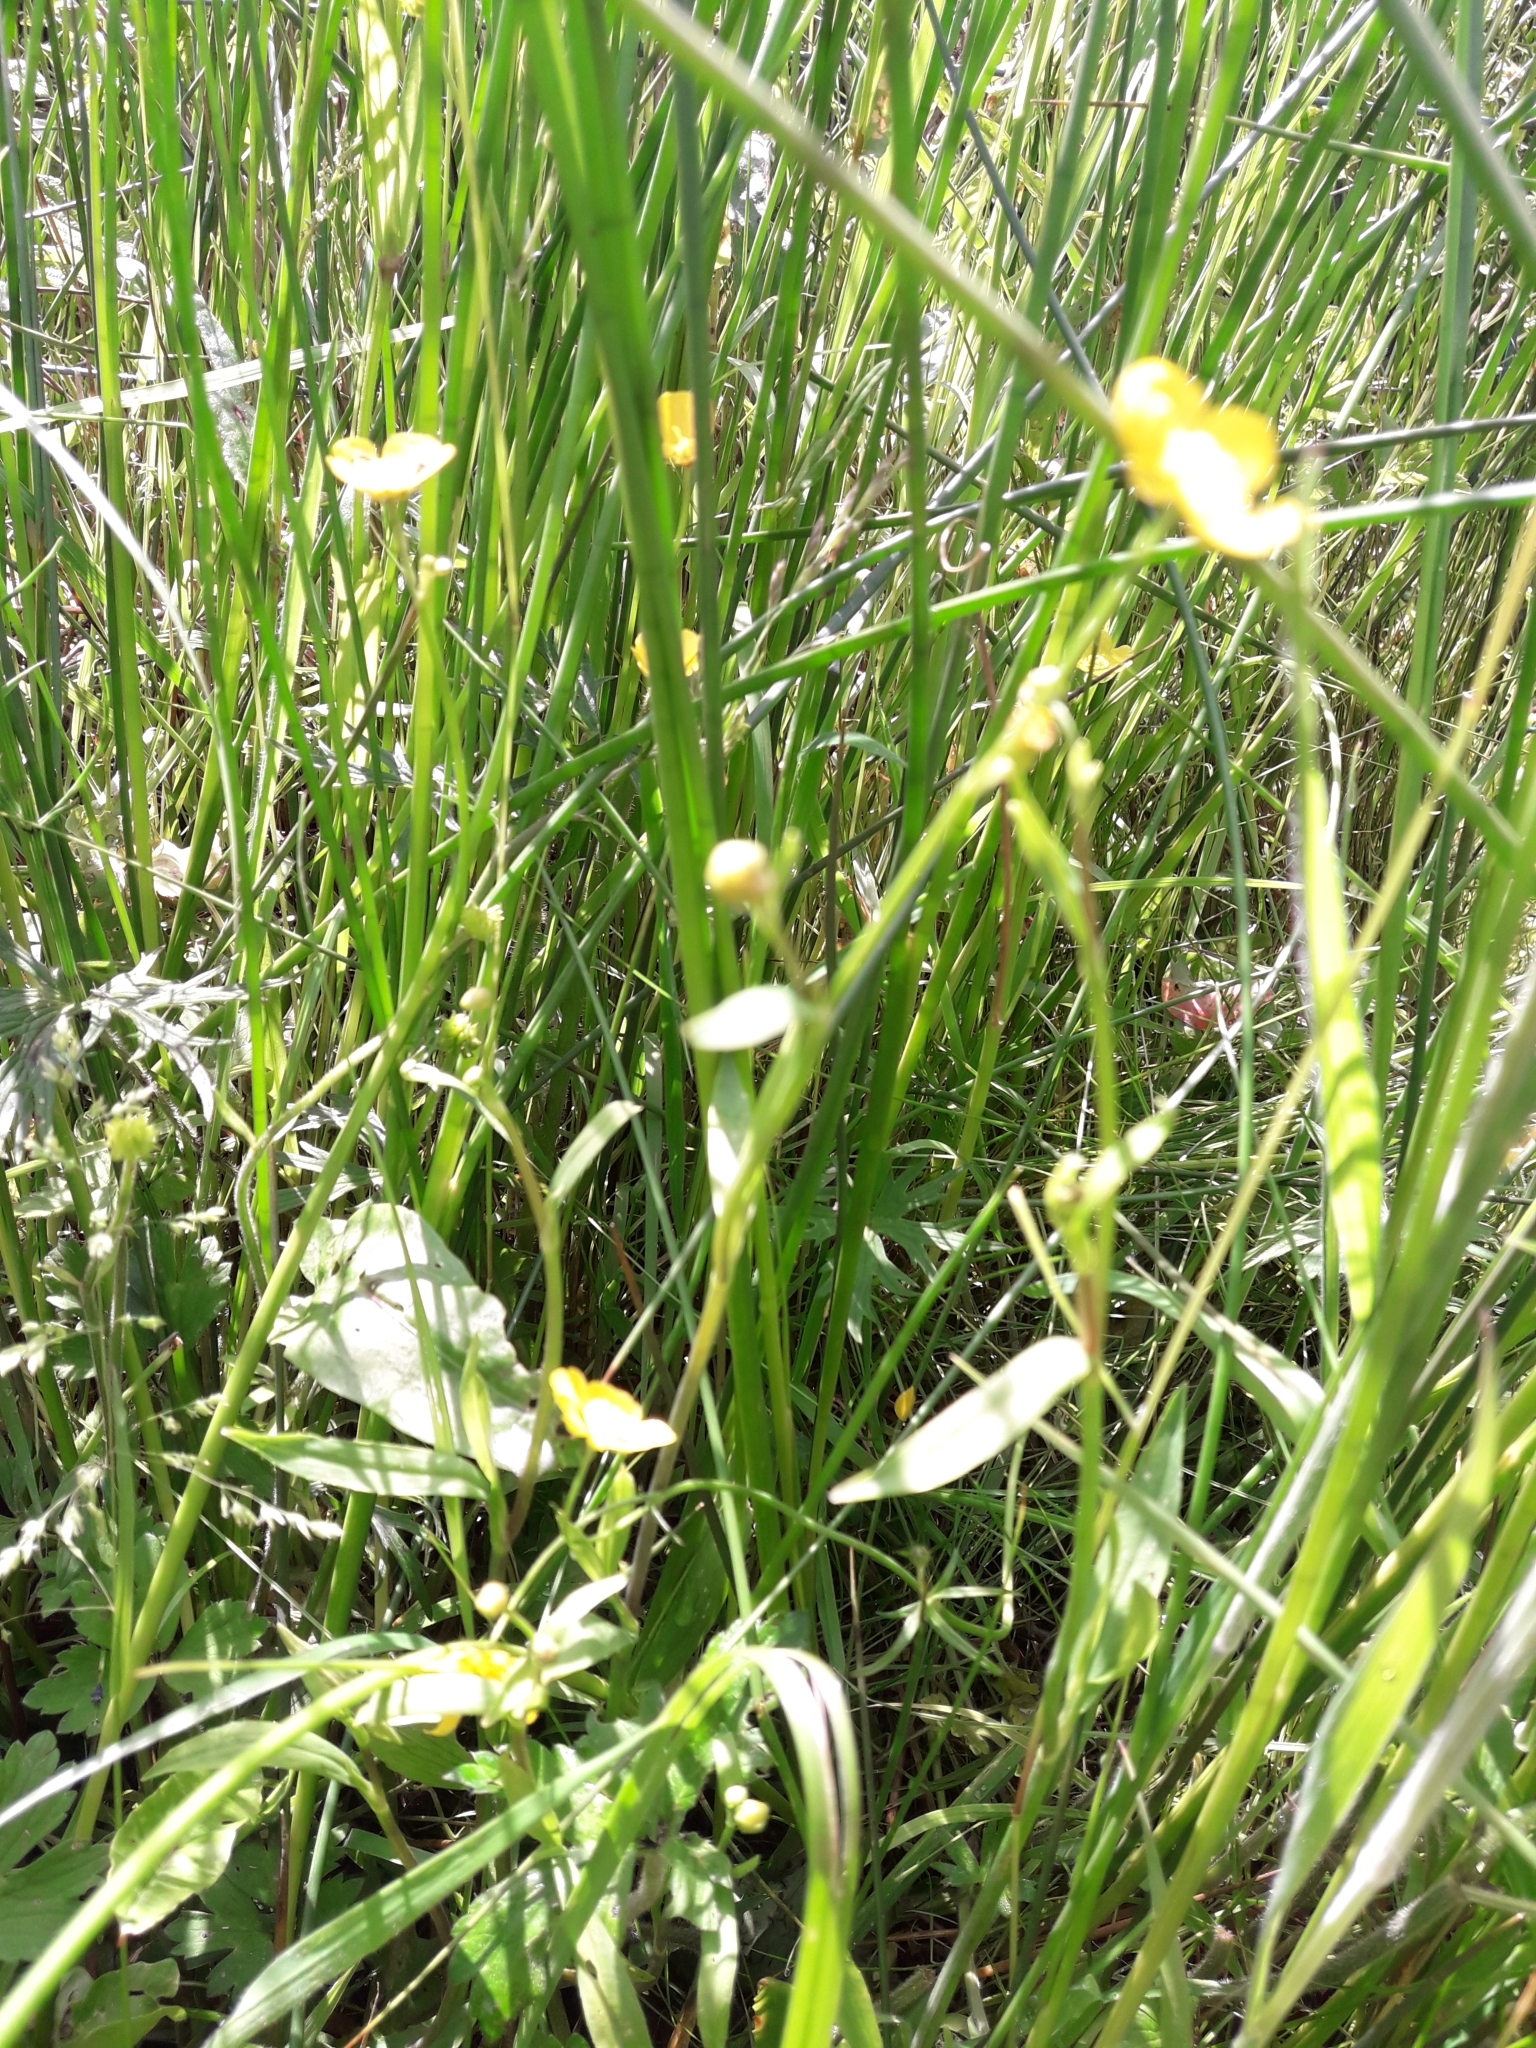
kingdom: Plantae
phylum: Tracheophyta
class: Magnoliopsida
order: Ranunculales
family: Ranunculaceae
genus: Ranunculus
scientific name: Ranunculus flammula
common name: Lesser spearwort
